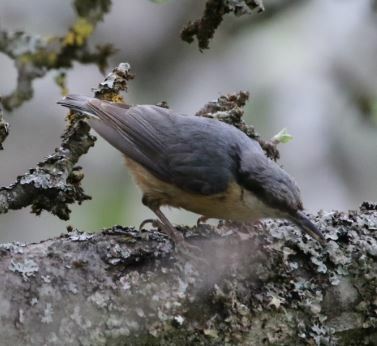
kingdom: Animalia
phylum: Chordata
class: Aves
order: Passeriformes
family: Sittidae
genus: Sitta
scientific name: Sitta europaea
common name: Eurasian nuthatch
